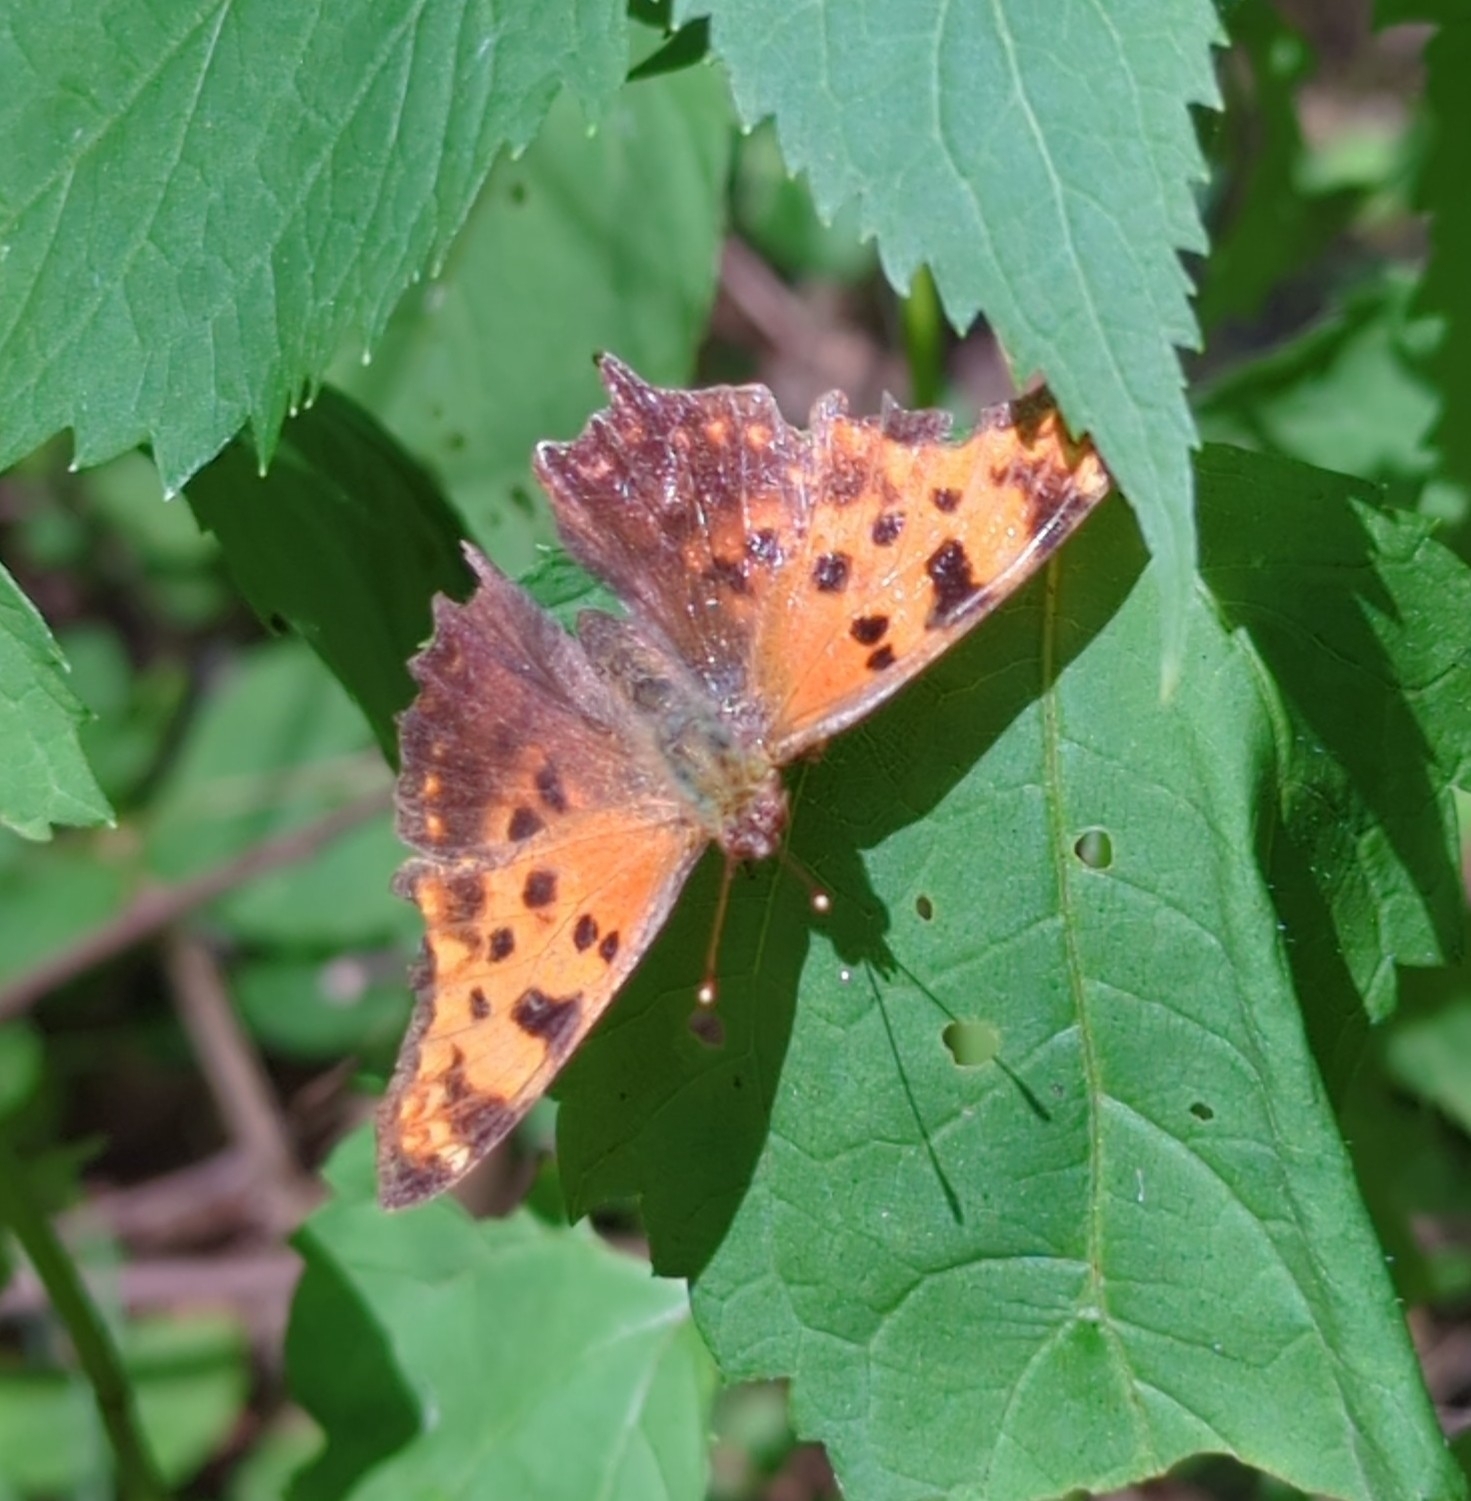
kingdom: Animalia
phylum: Arthropoda
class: Insecta
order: Lepidoptera
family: Nymphalidae
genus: Polygonia
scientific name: Polygonia comma
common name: Eastern comma
